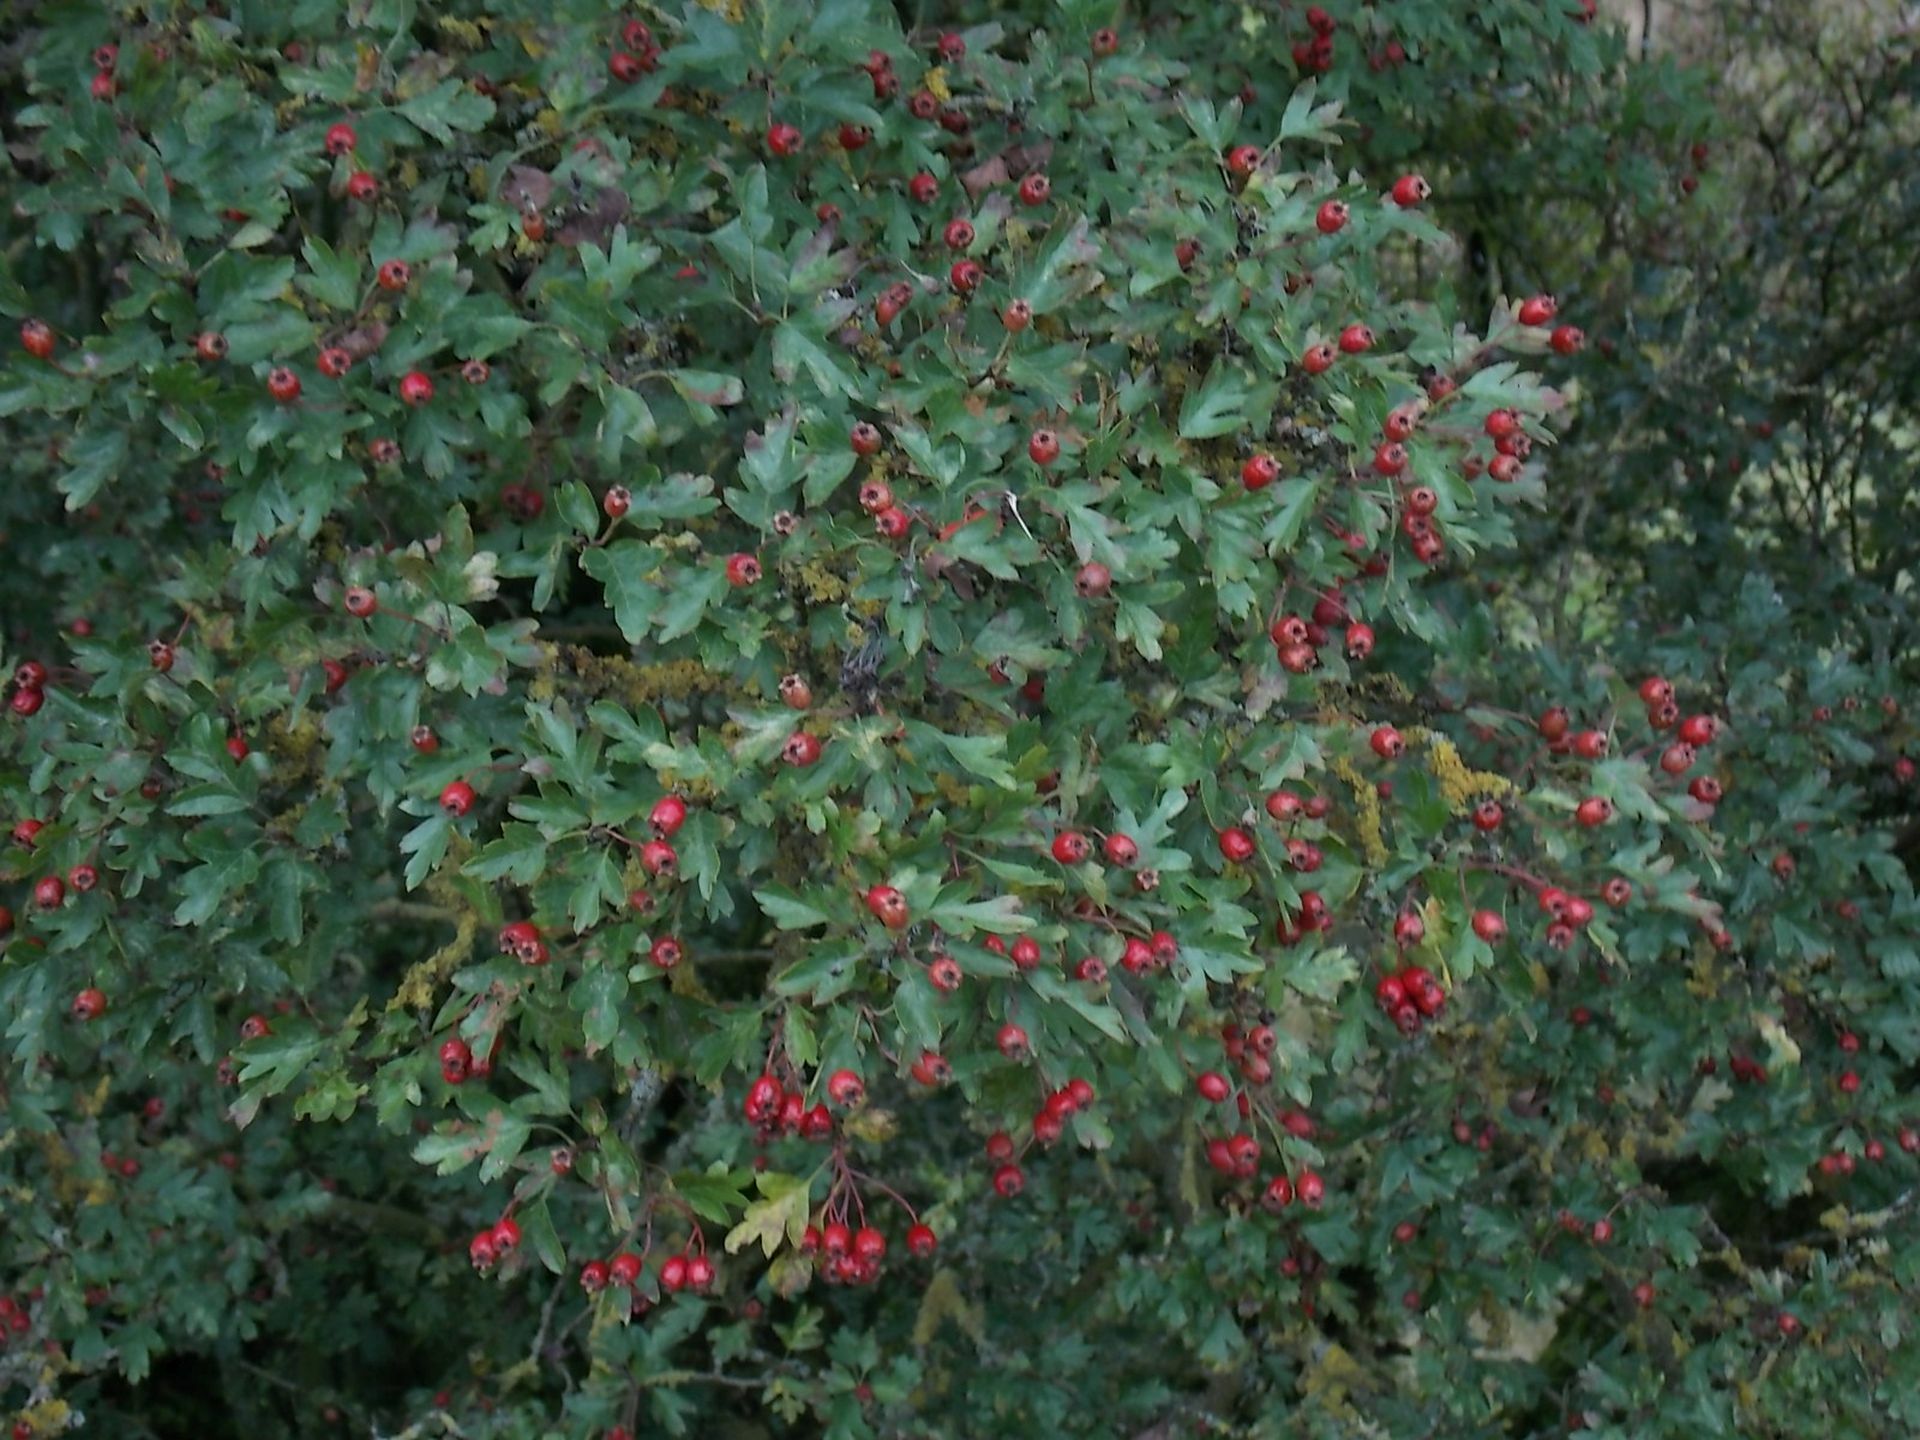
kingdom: Plantae
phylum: Tracheophyta
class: Magnoliopsida
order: Rosales
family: Rosaceae
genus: Crataegus
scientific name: Crataegus monogyna
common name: Hawthorn
